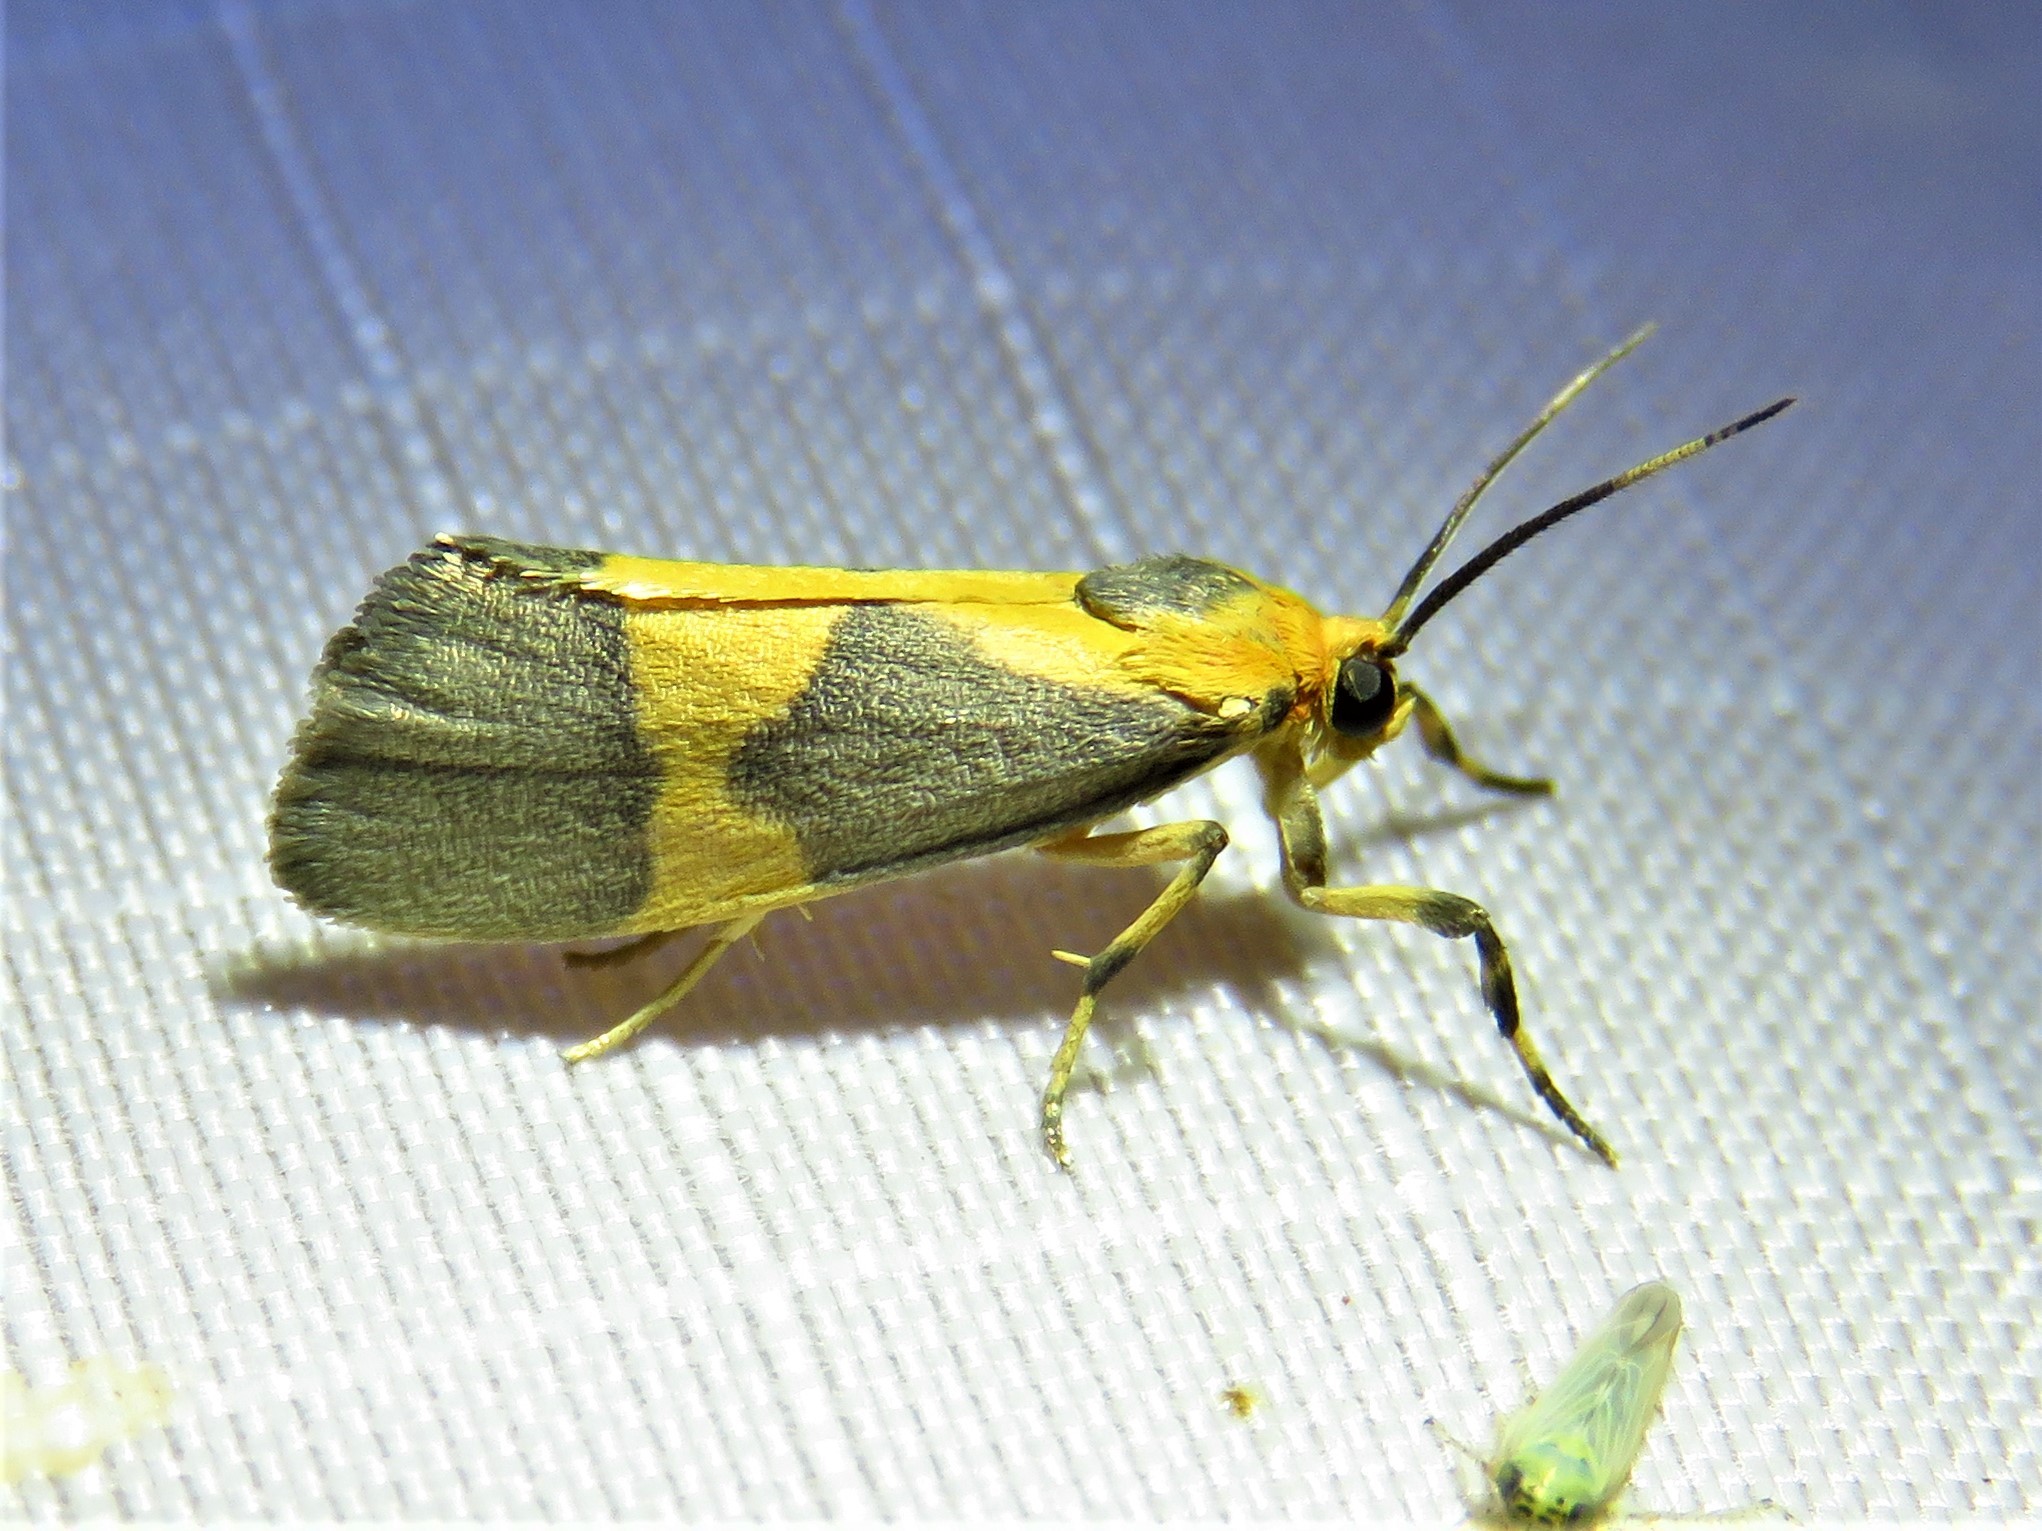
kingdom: Animalia
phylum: Arthropoda
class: Insecta
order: Lepidoptera
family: Erebidae
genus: Cisthene
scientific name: Cisthene unifascia
